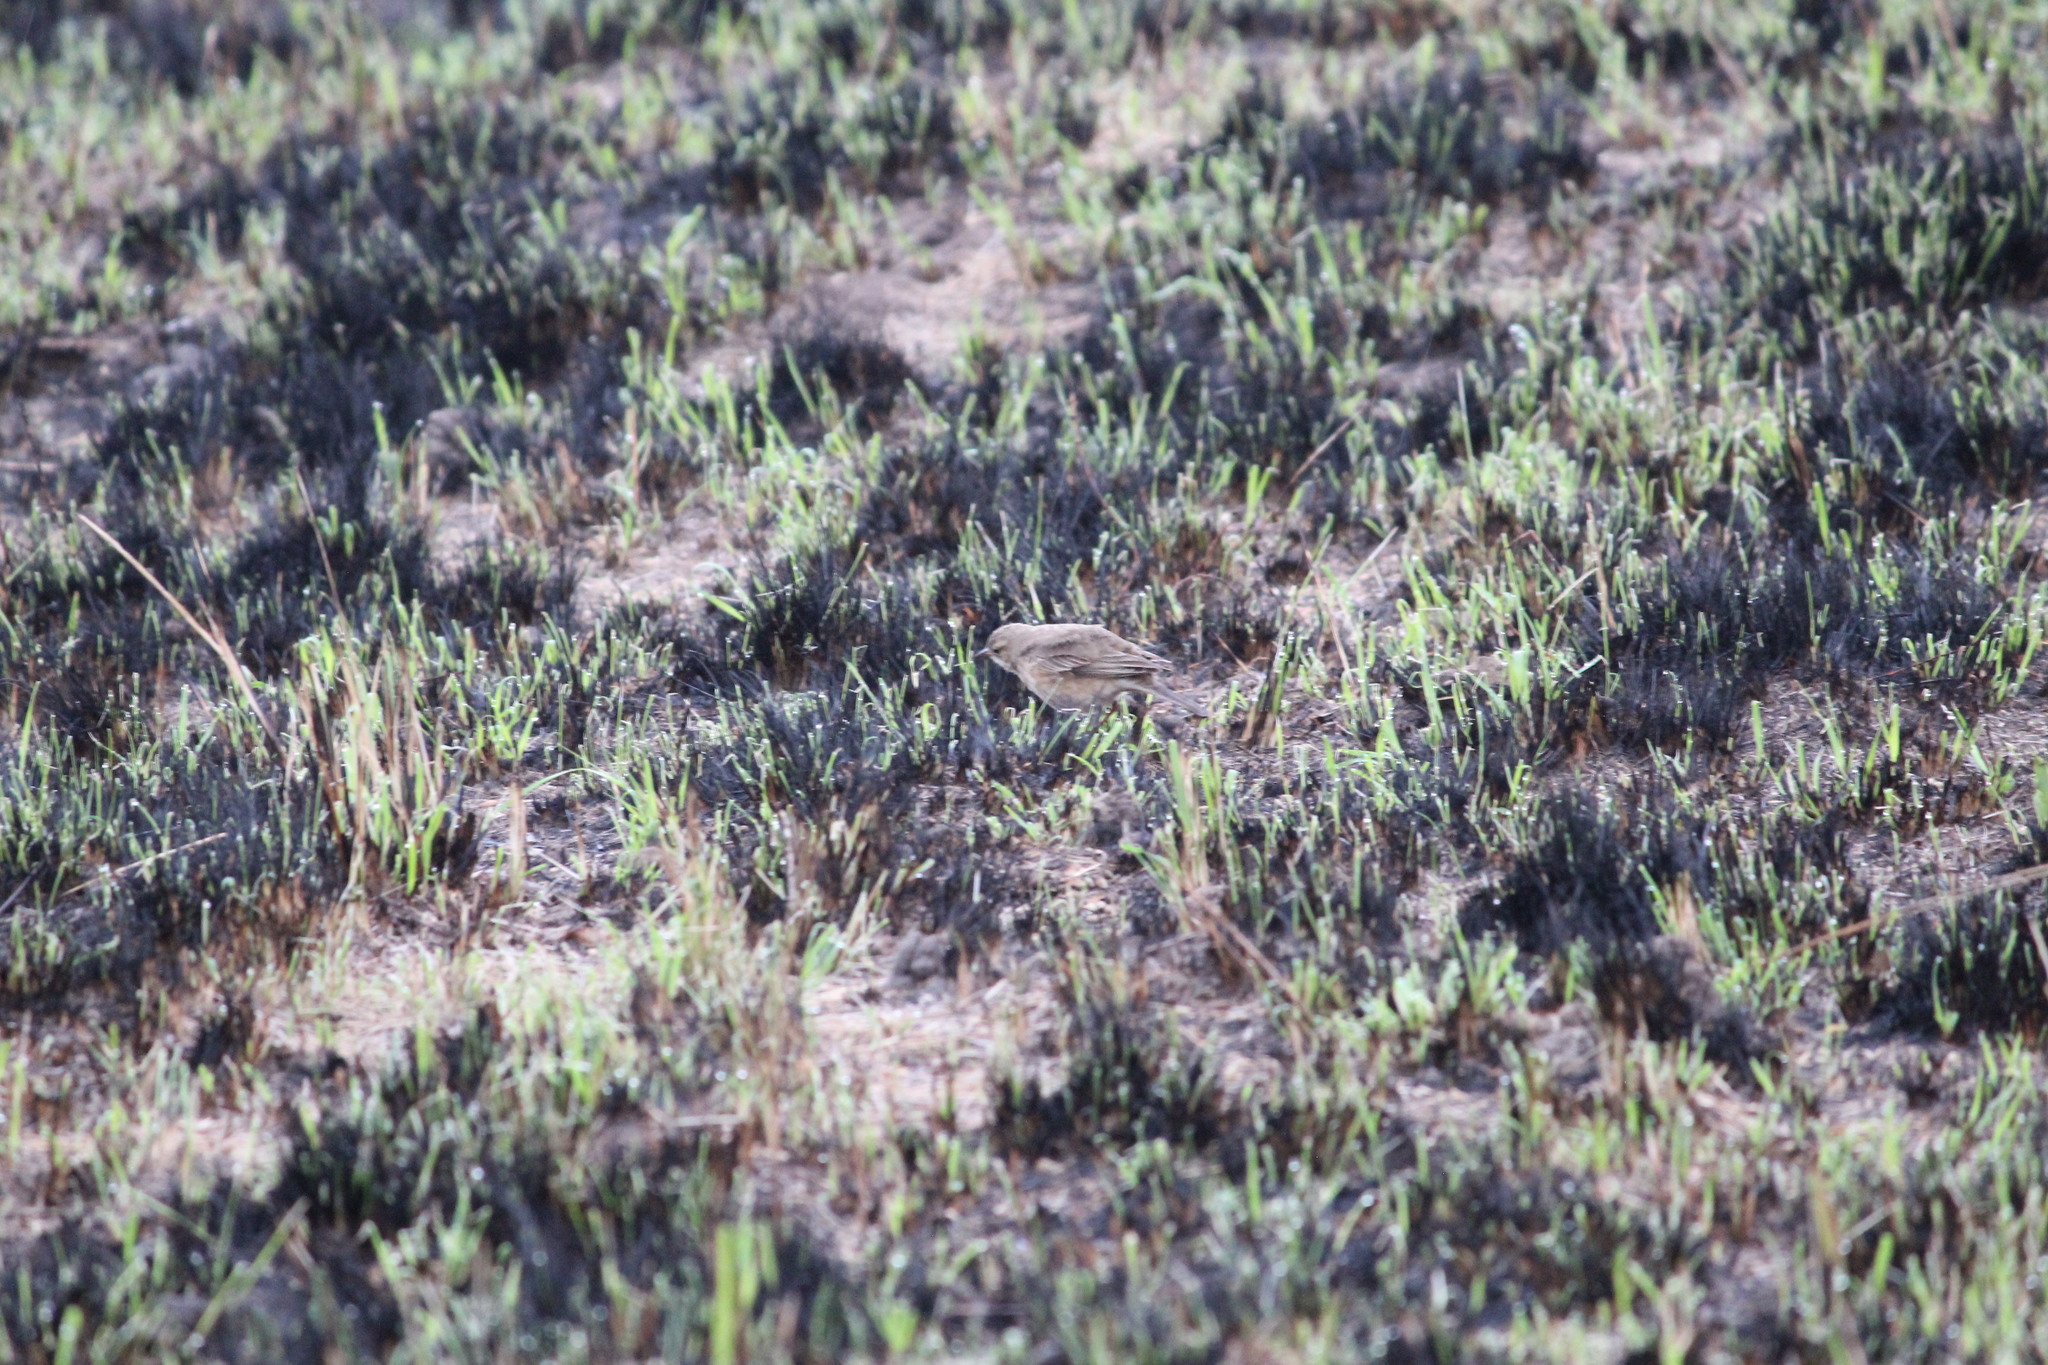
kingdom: Animalia
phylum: Chordata
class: Aves
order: Passeriformes
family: Motacillidae
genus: Anthus
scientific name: Anthus leucophrys
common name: Plain-backed pipit
